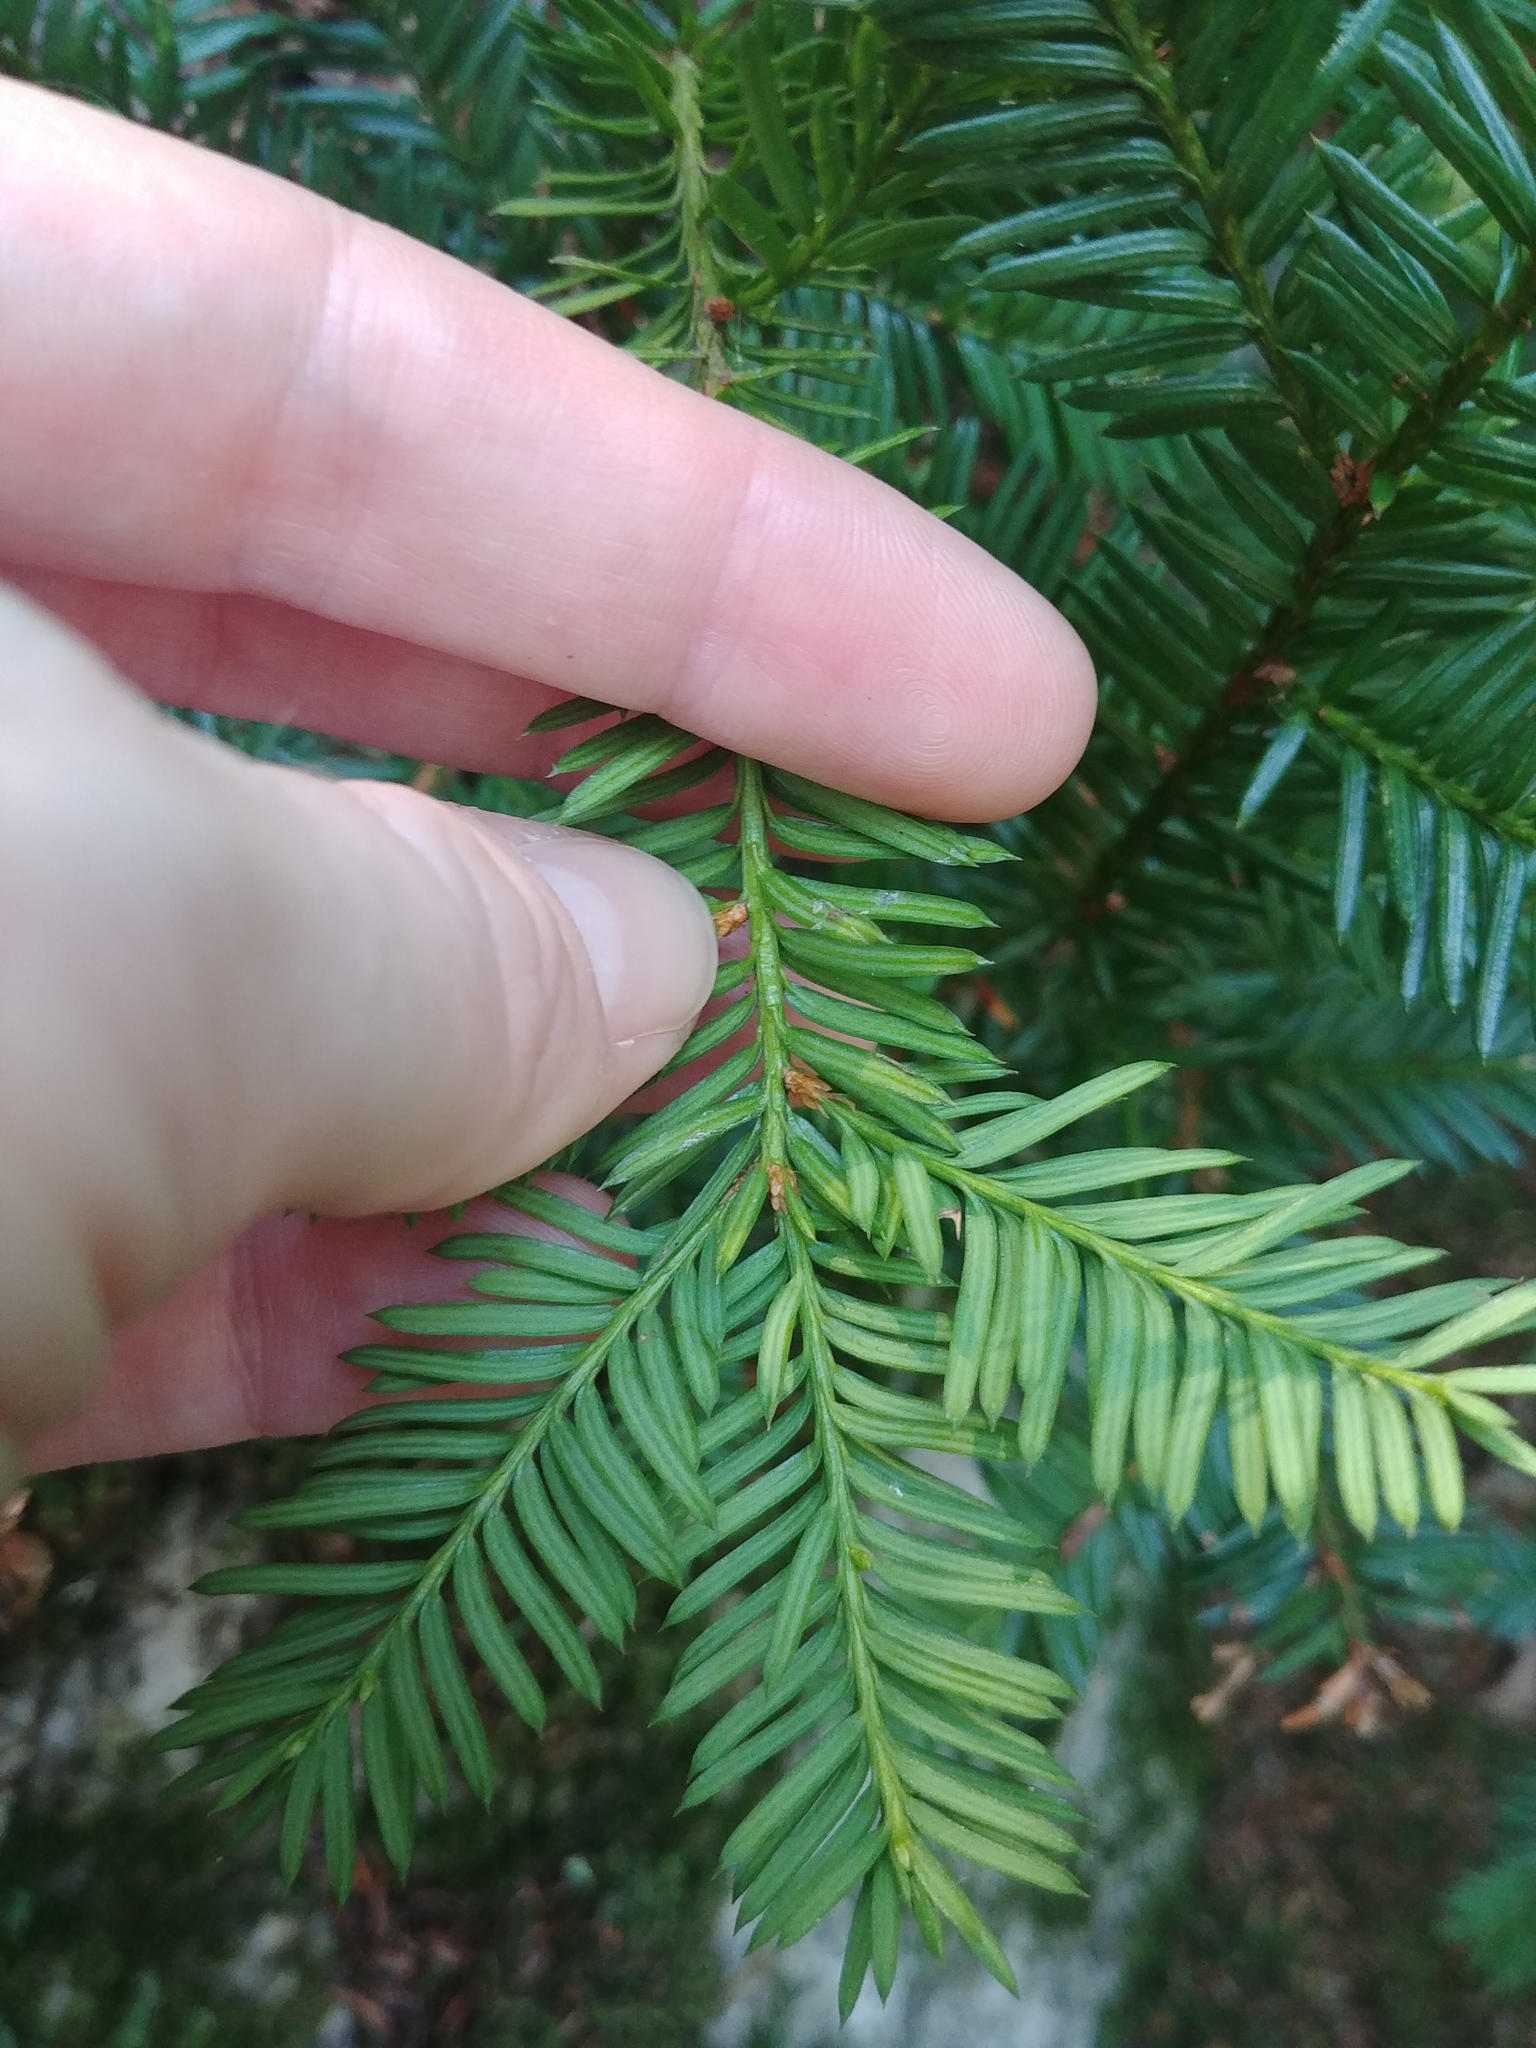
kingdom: Plantae
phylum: Tracheophyta
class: Pinopsida
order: Pinales
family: Taxaceae
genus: Taxus
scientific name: Taxus canadensis
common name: American yew
